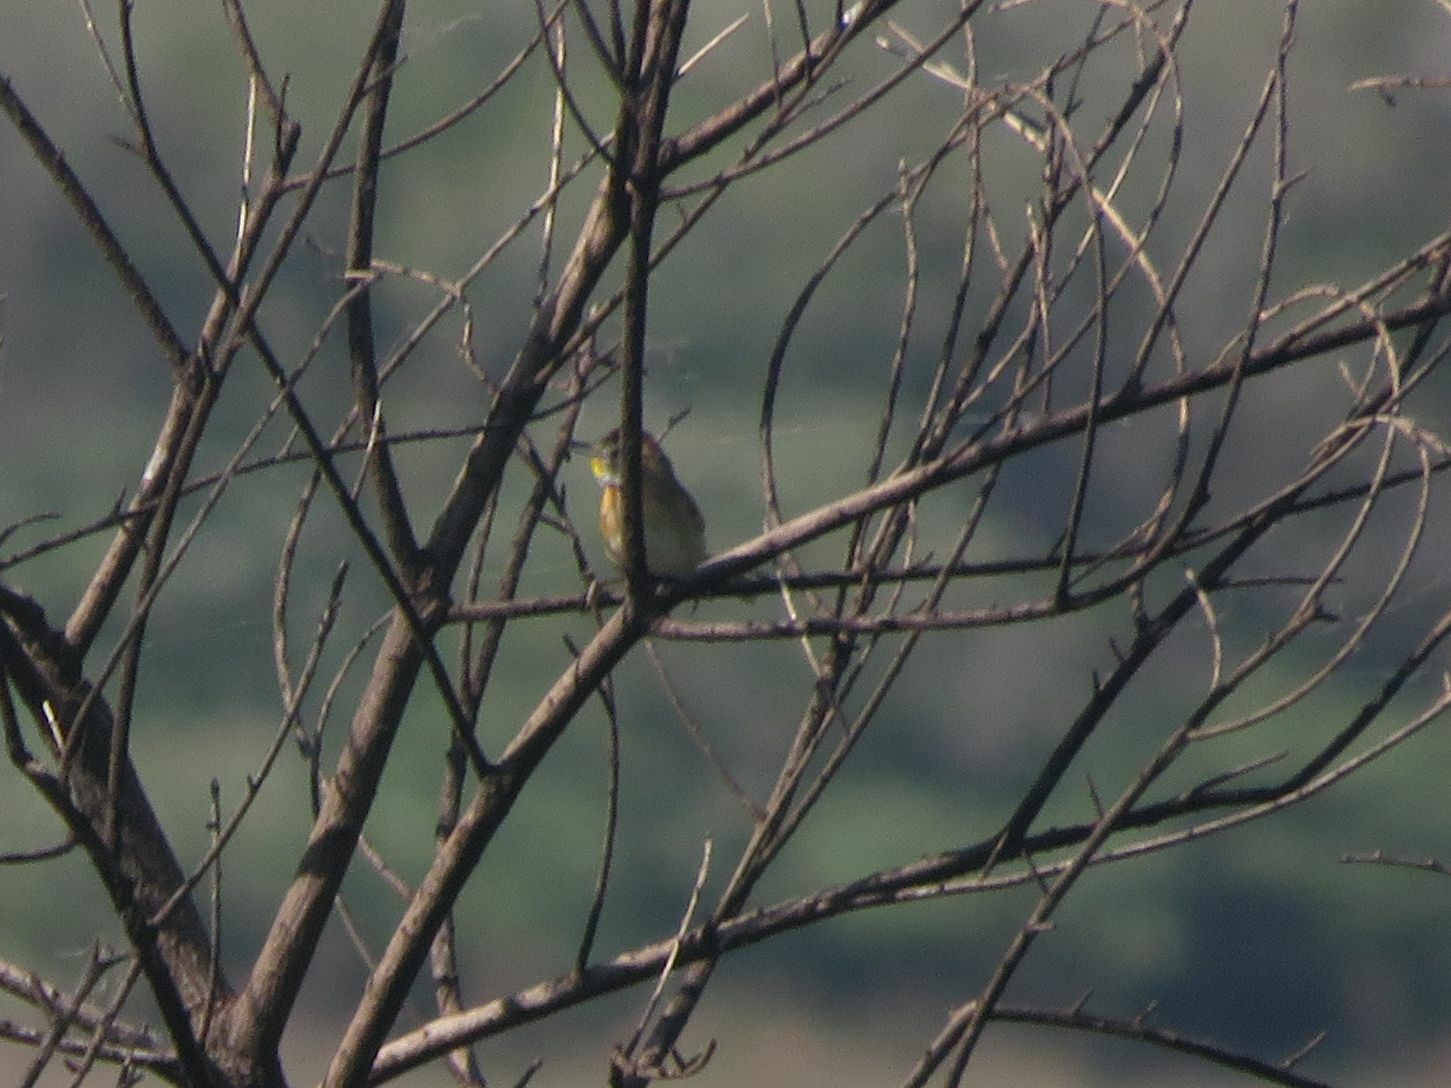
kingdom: Animalia
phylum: Chordata
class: Aves
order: Passeriformes
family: Furnariidae
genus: Schoeniophylax
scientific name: Schoeniophylax phryganophilus
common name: Chotoy spinetail
